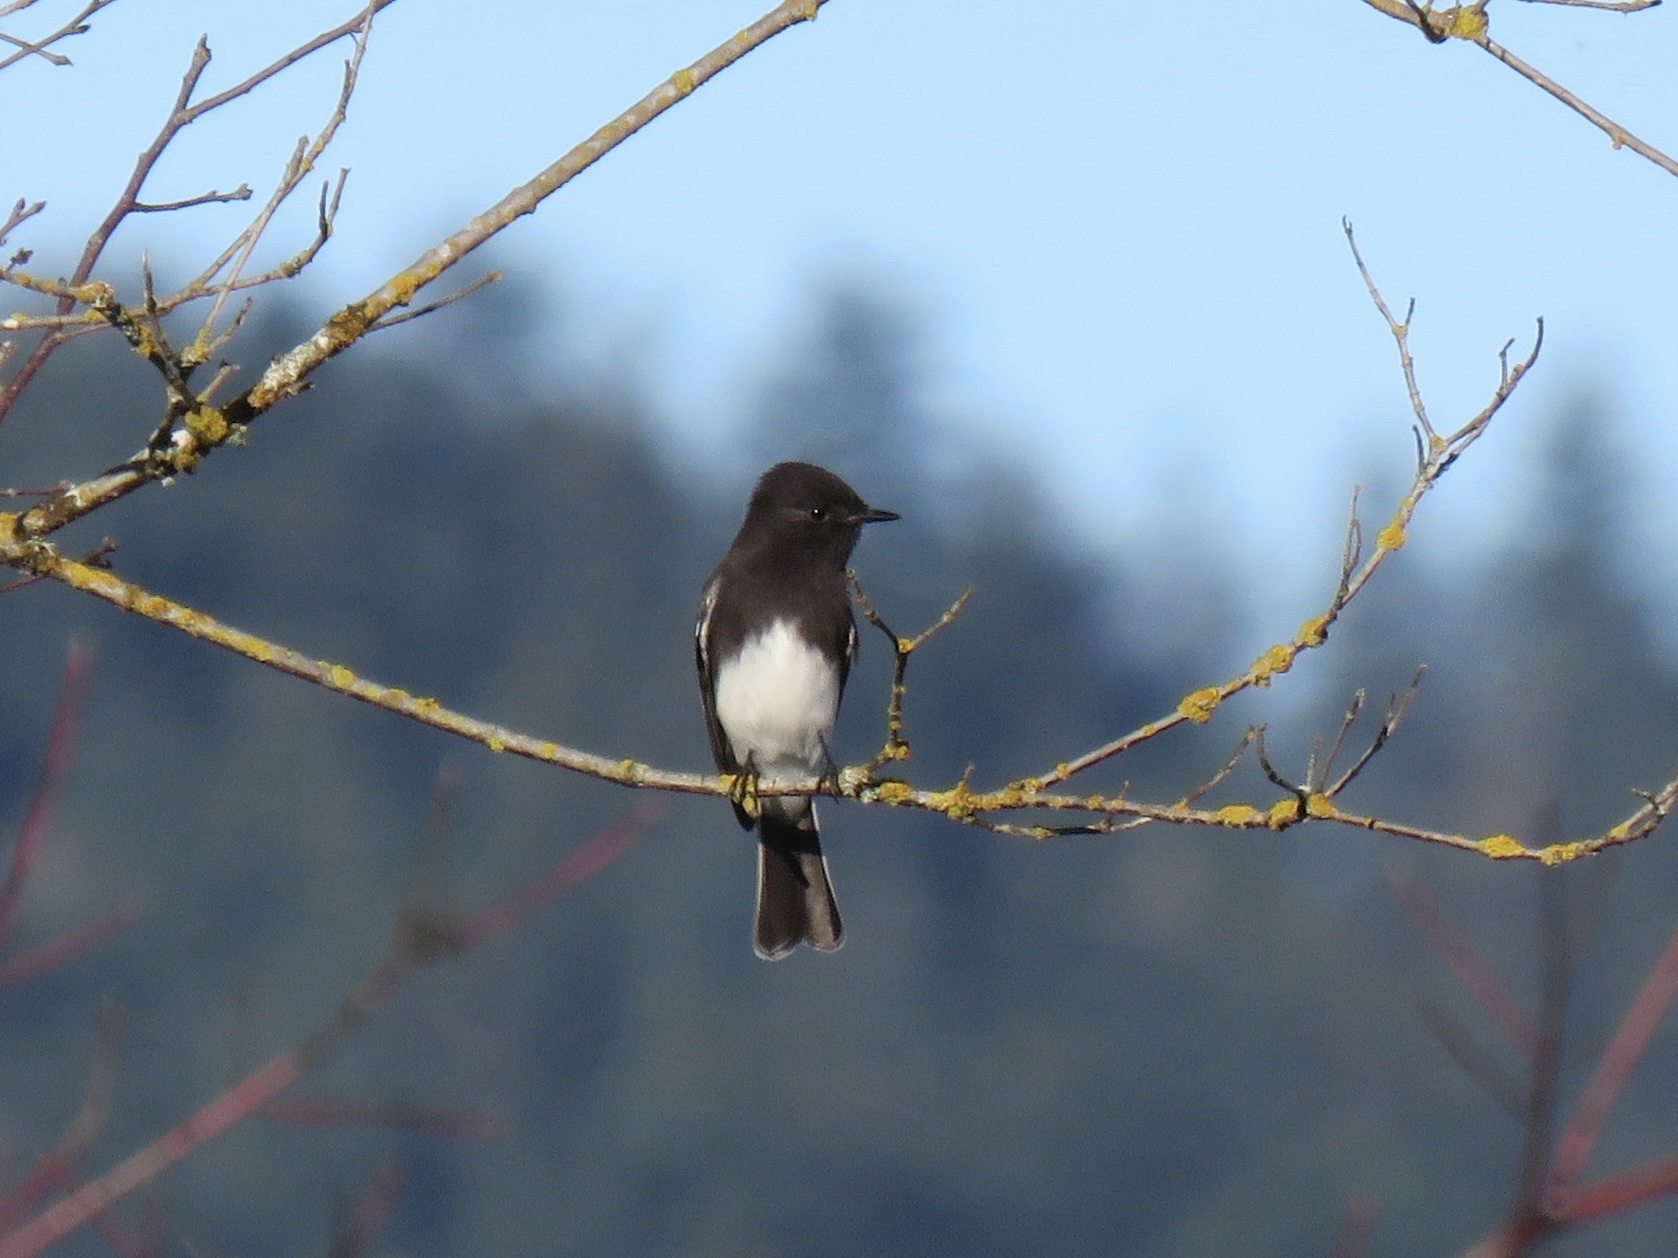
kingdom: Animalia
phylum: Chordata
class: Aves
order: Passeriformes
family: Tyrannidae
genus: Sayornis
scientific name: Sayornis nigricans
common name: Black phoebe
